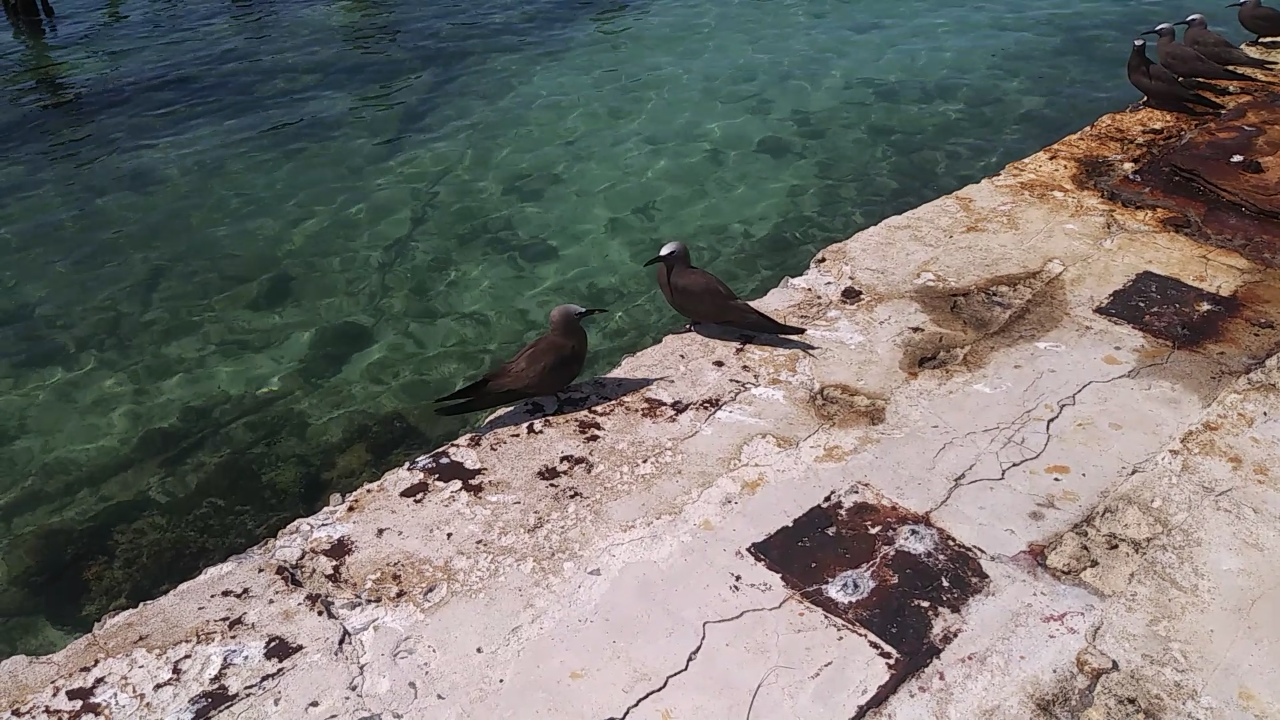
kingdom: Animalia
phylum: Chordata
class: Aves
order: Charadriiformes
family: Laridae
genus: Anous
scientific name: Anous stolidus
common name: Brown noddy
